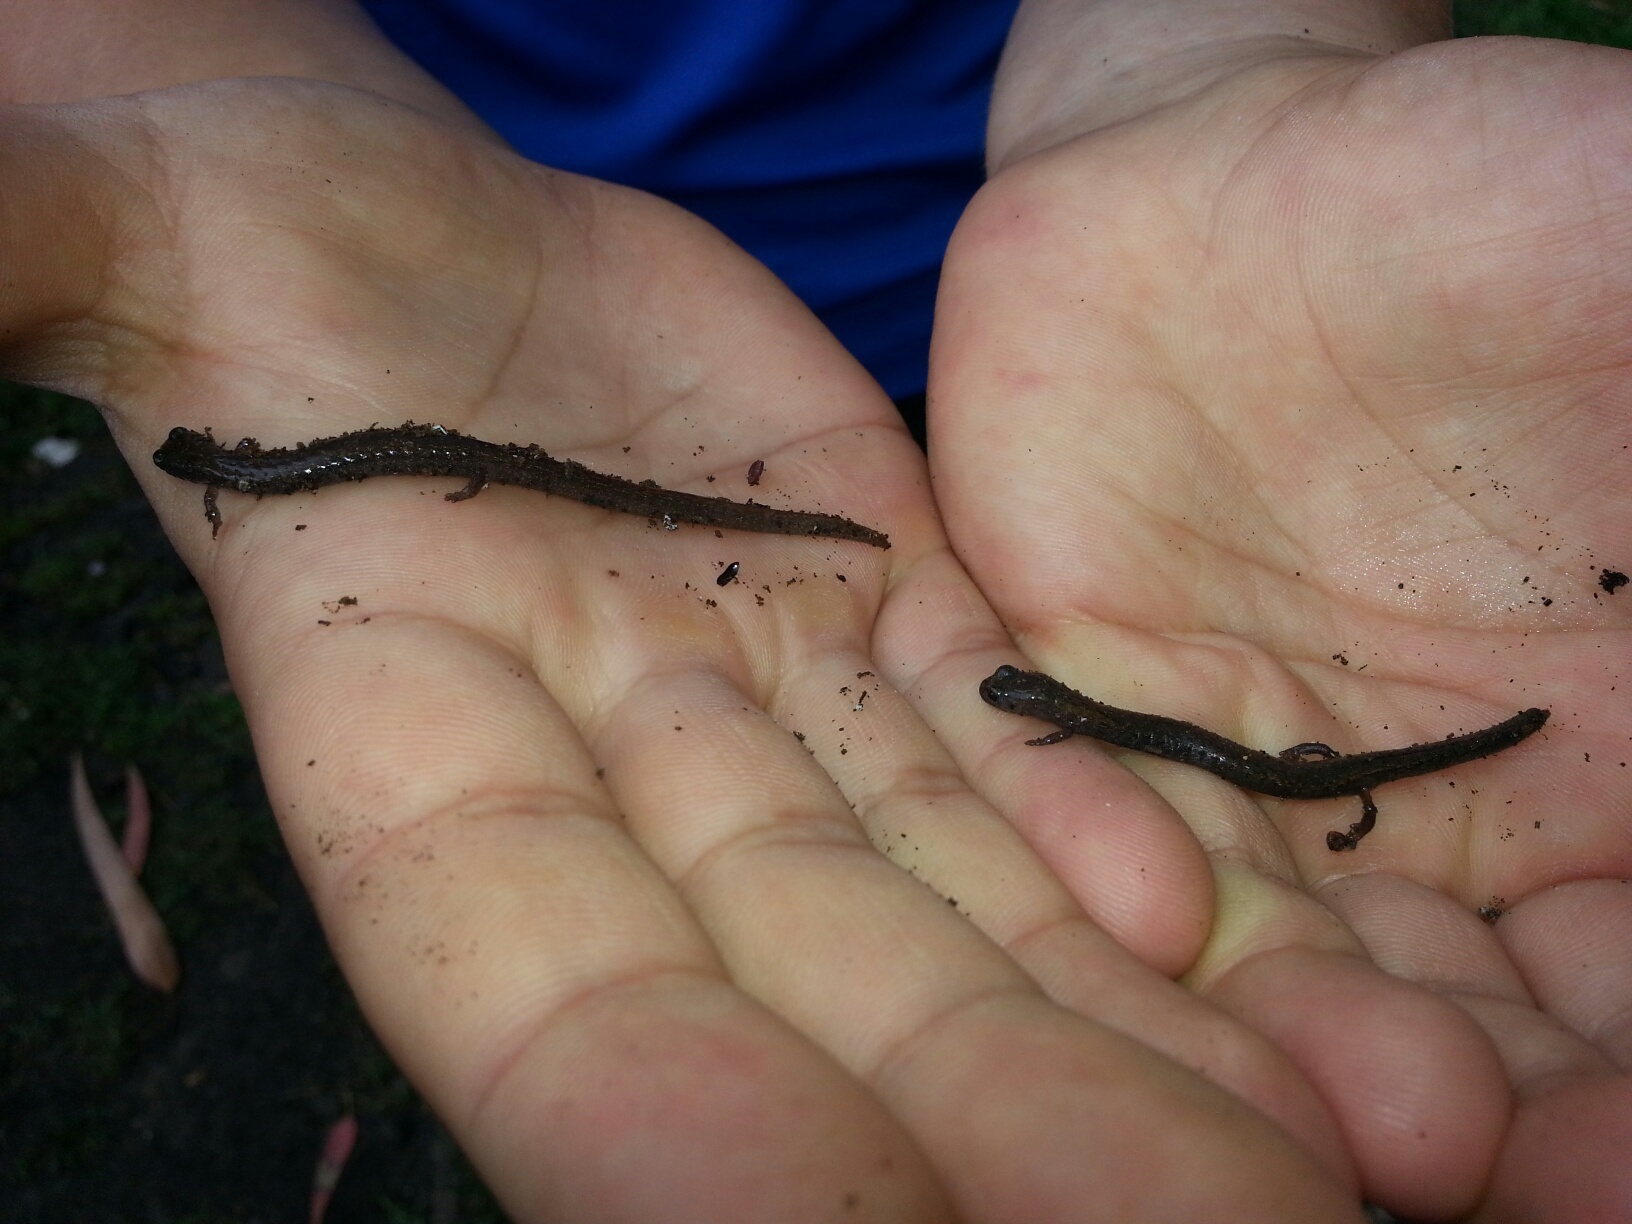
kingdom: Animalia
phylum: Chordata
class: Amphibia
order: Caudata
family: Plethodontidae
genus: Batrachoseps
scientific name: Batrachoseps attenuatus
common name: California slender salamander
